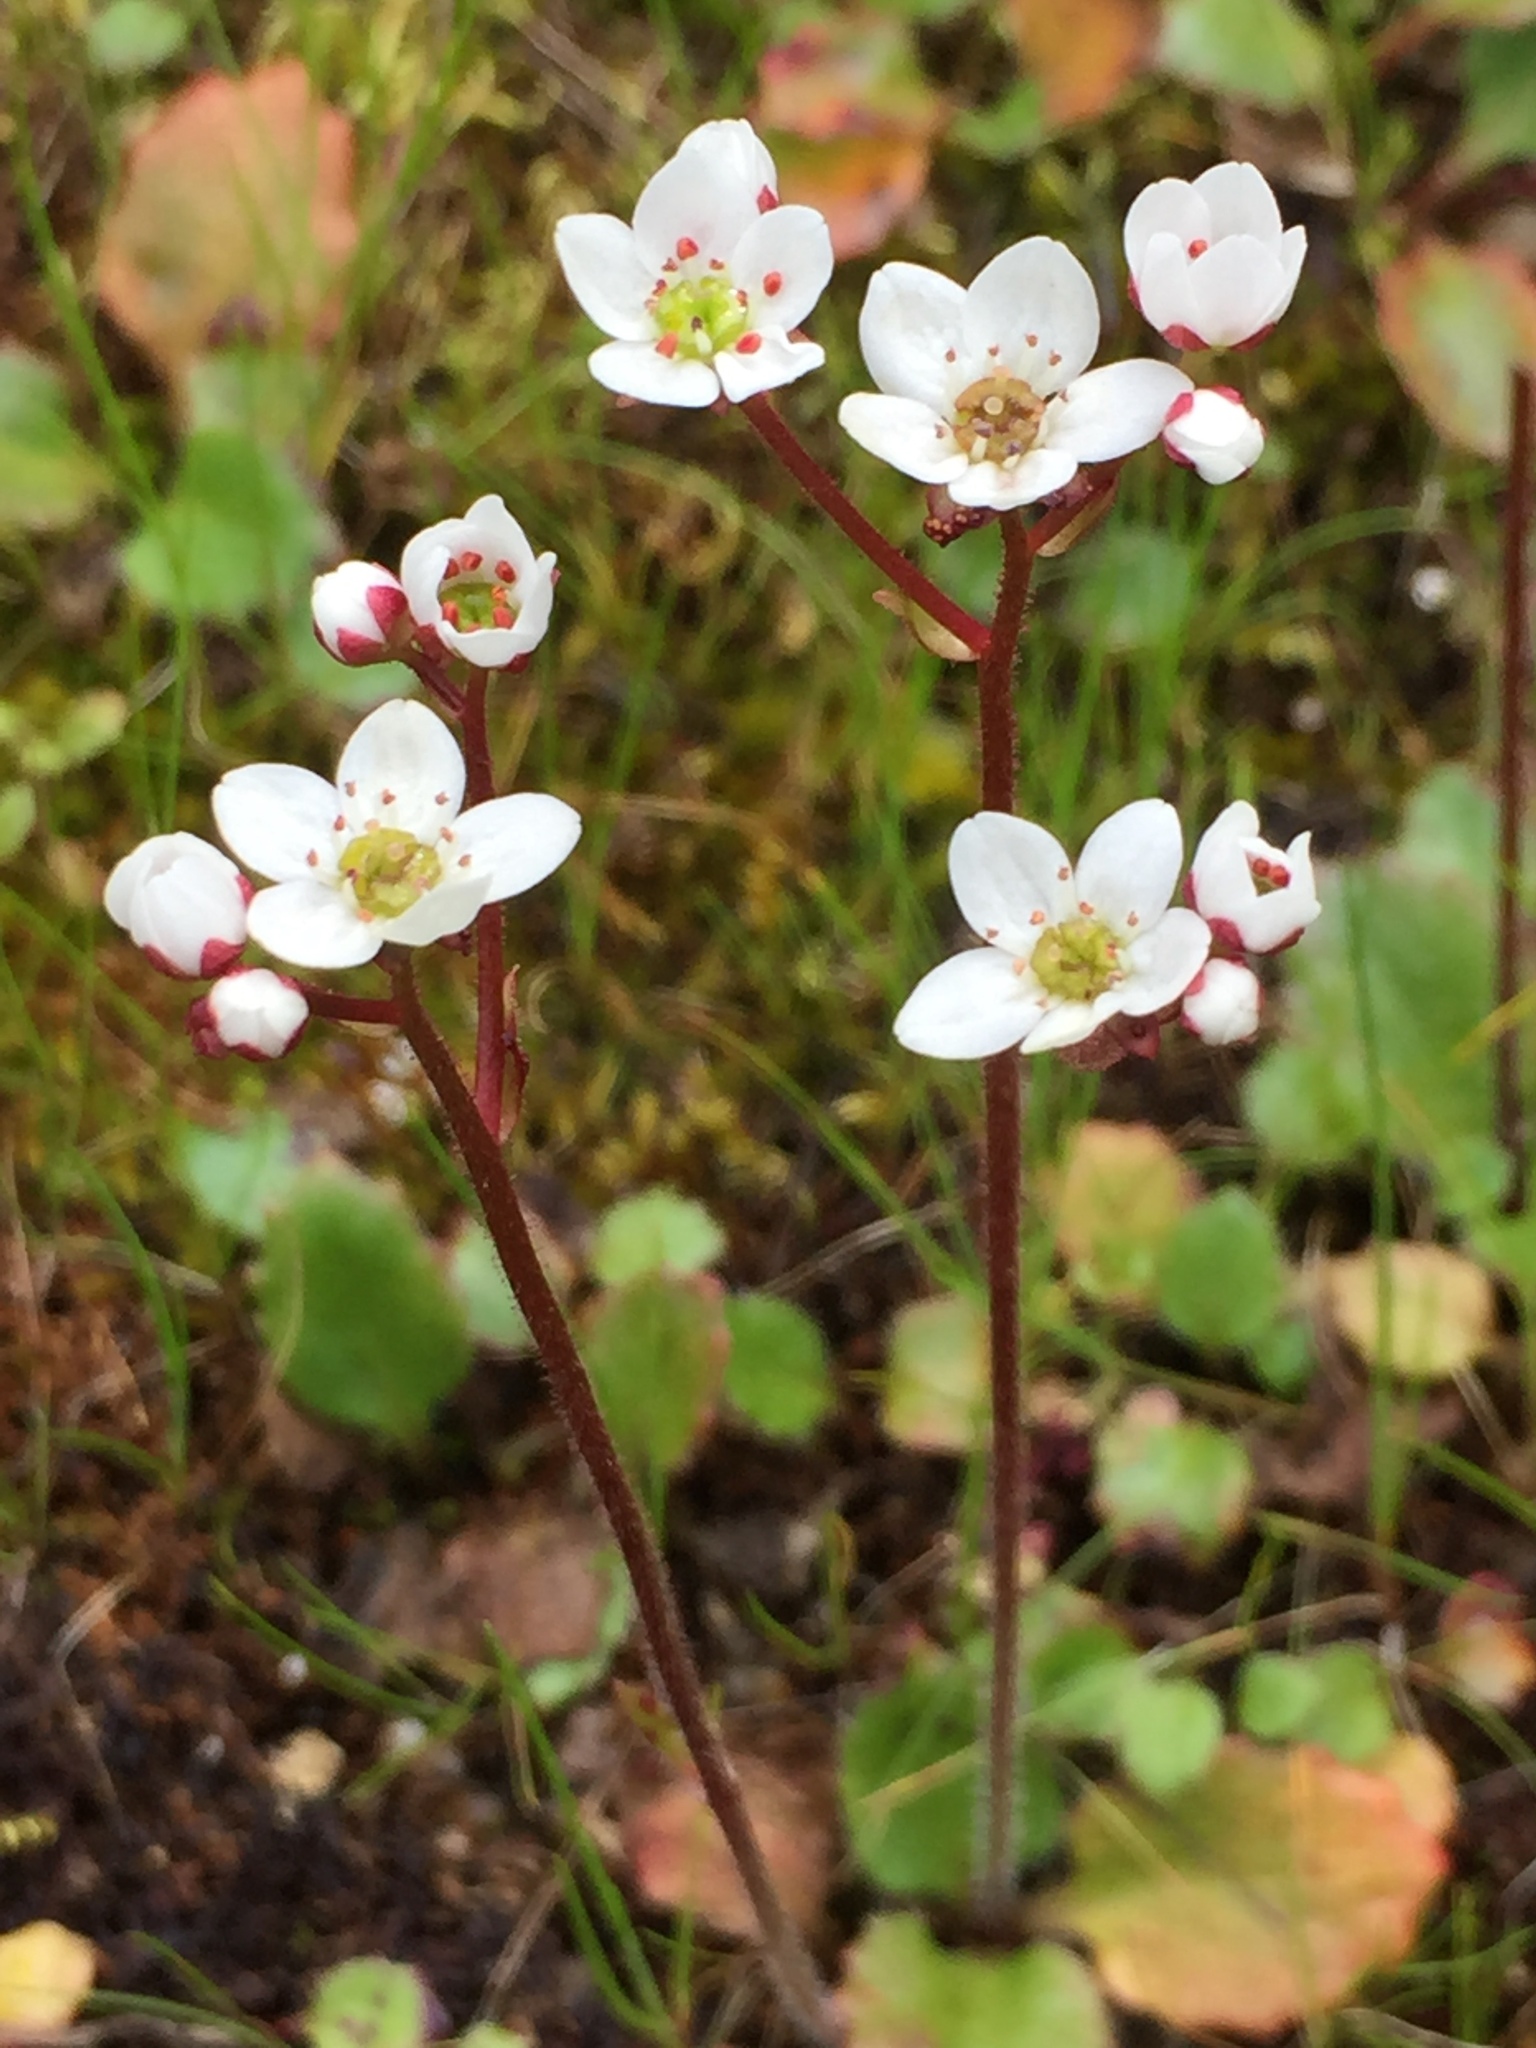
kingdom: Plantae
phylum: Tracheophyta
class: Magnoliopsida
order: Saxifragales
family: Saxifragaceae
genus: Micranthes
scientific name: Micranthes californica
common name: California saxifrage
